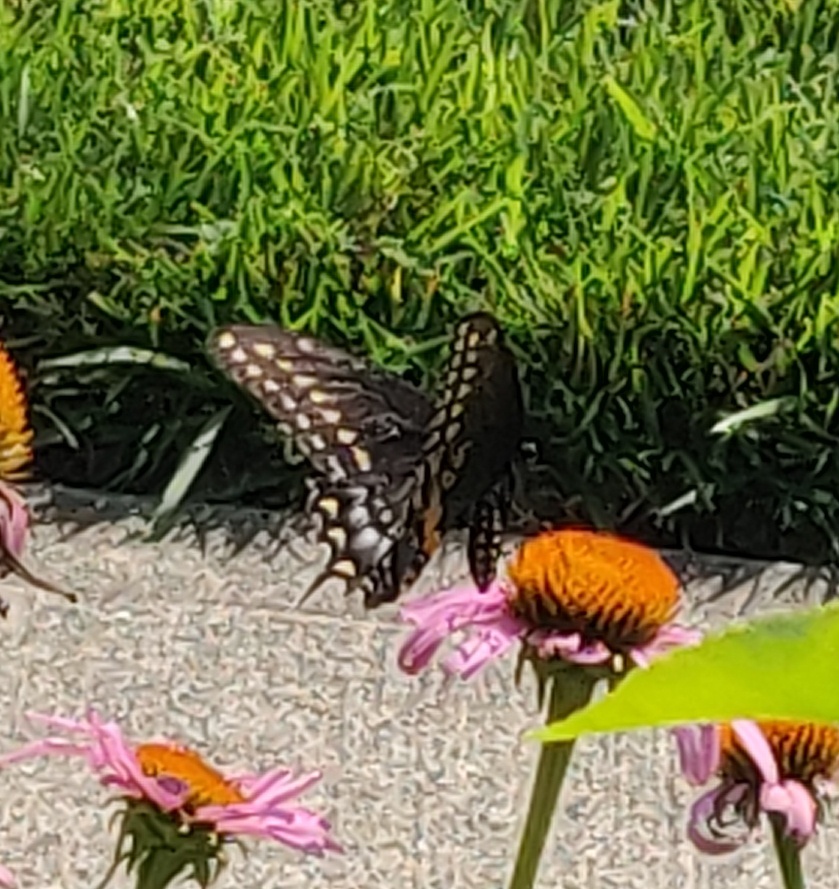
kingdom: Animalia
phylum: Arthropoda
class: Insecta
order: Lepidoptera
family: Papilionidae
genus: Papilio
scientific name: Papilio polyxenes
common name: Black swallowtail
